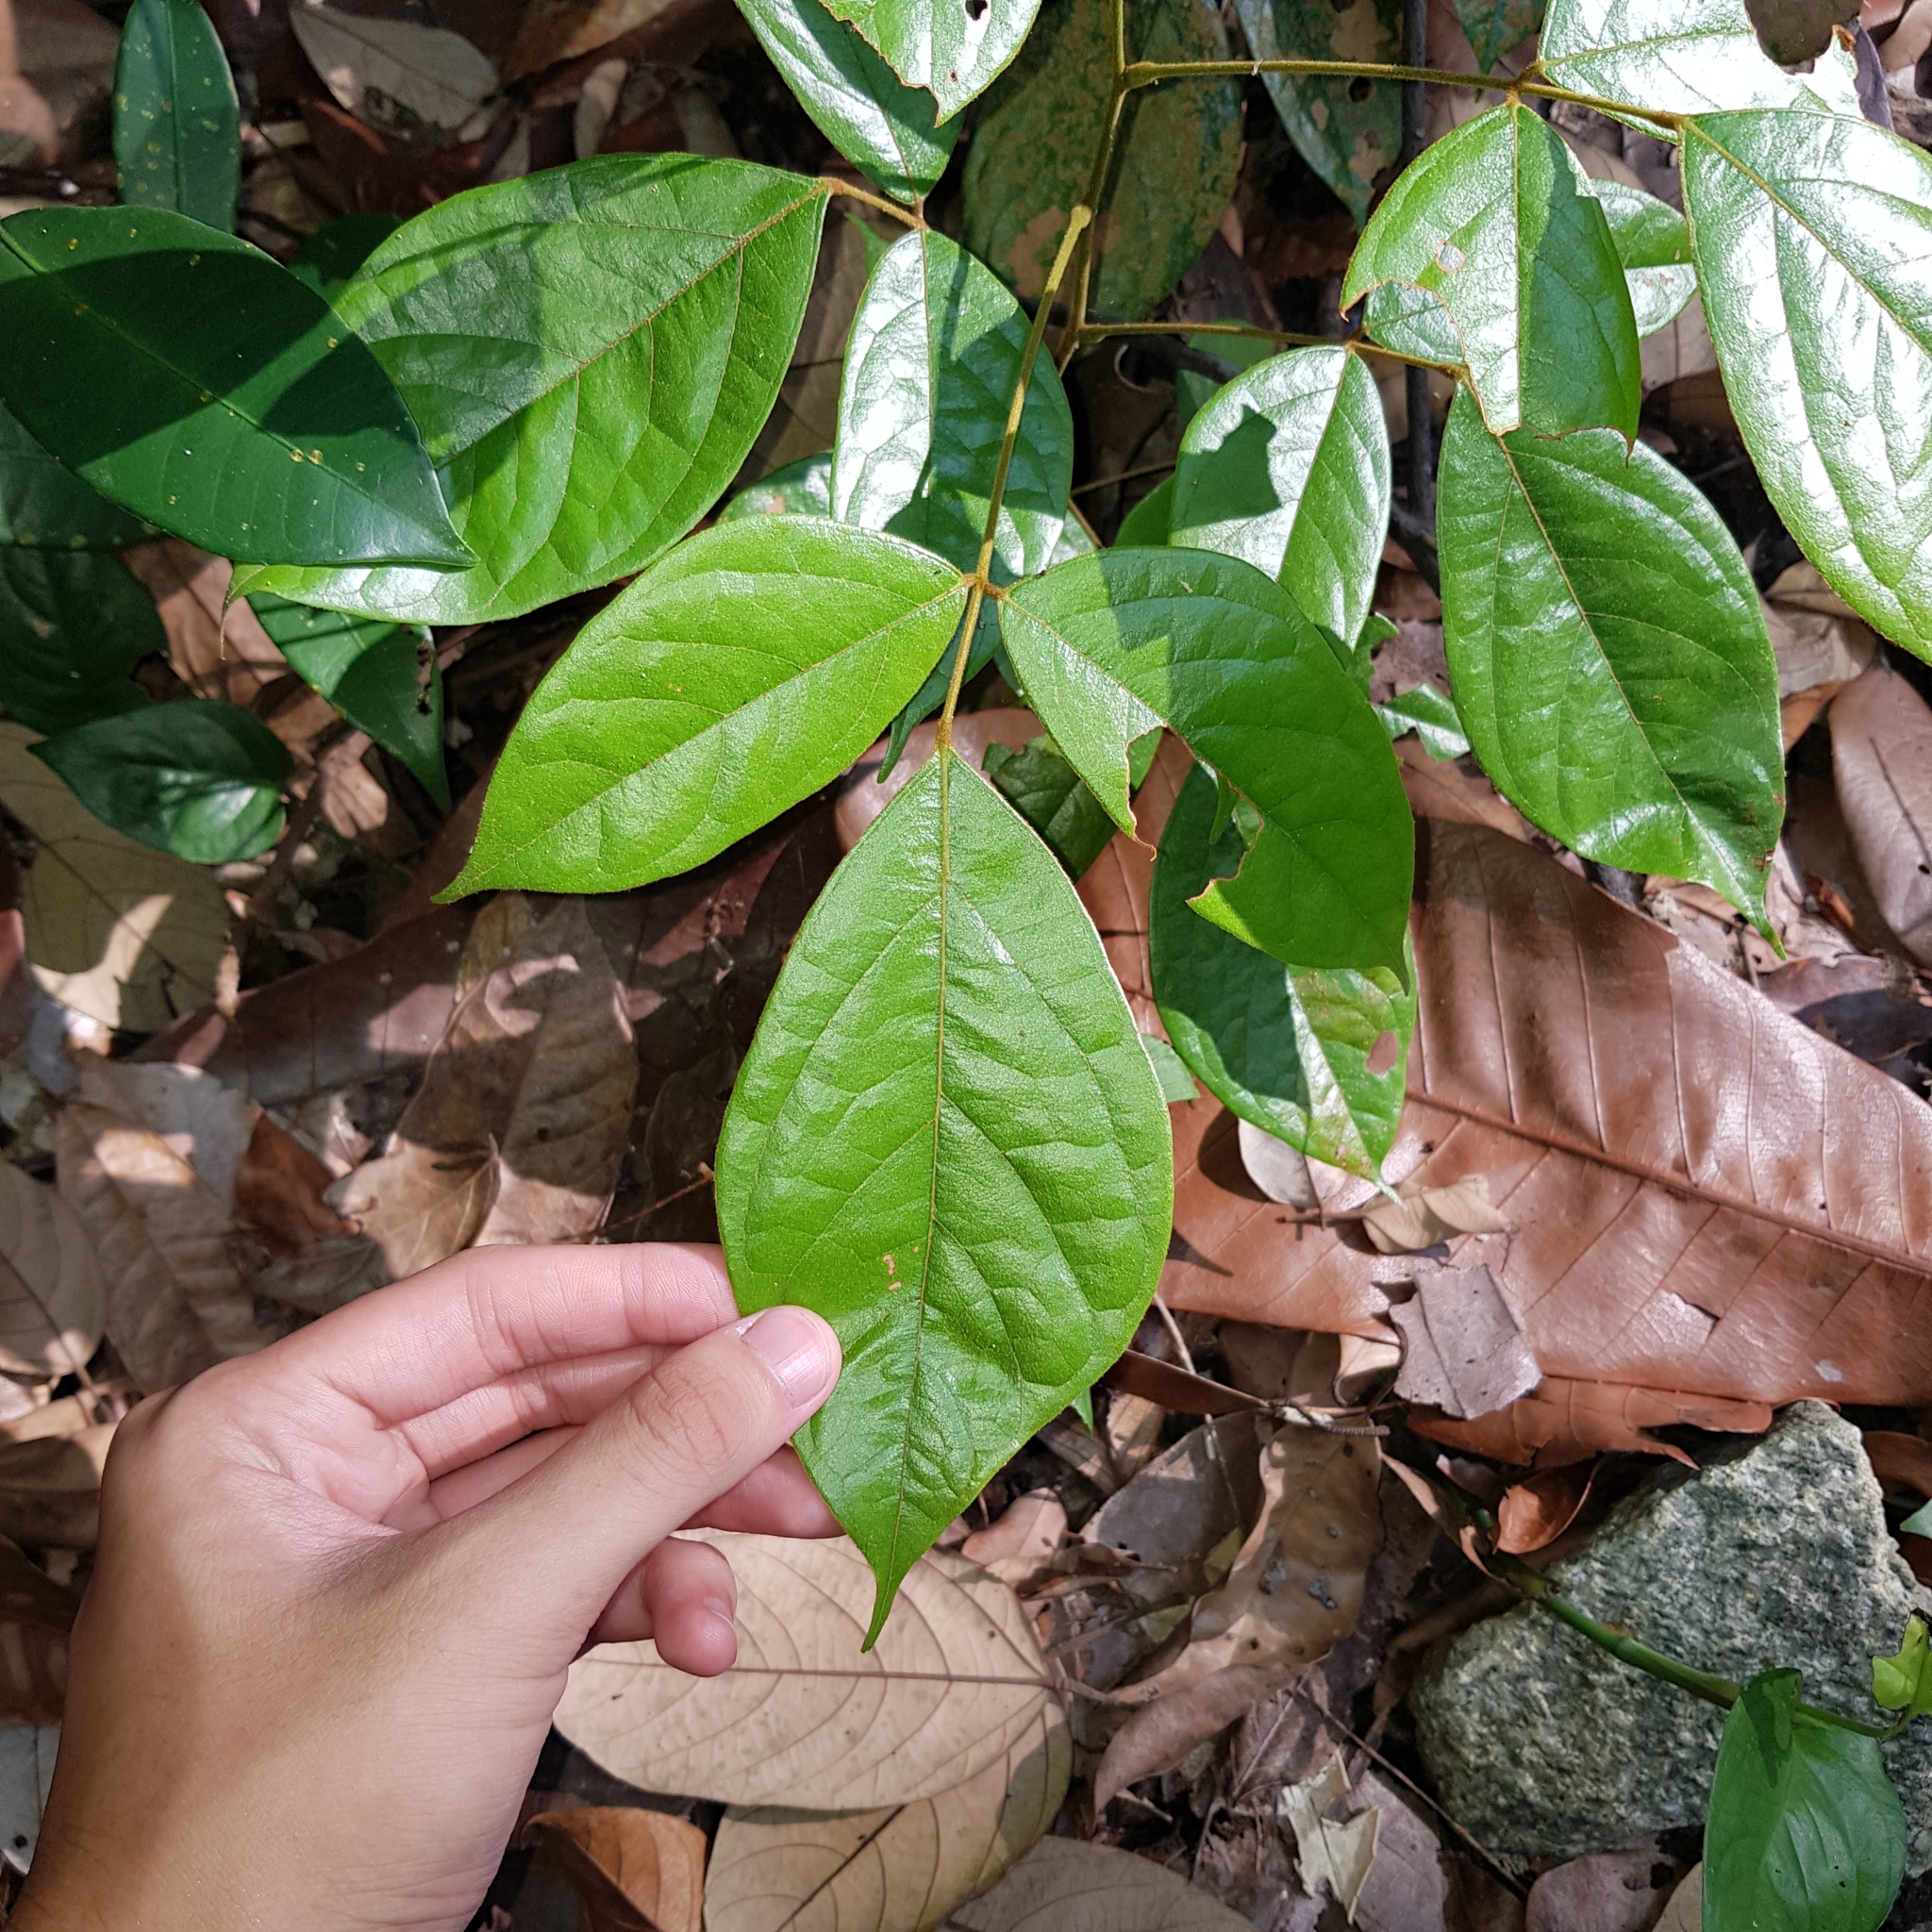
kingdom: Plantae
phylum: Tracheophyta
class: Magnoliopsida
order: Oxalidales
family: Connaraceae
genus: Agelaea
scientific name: Agelaea borneensis
